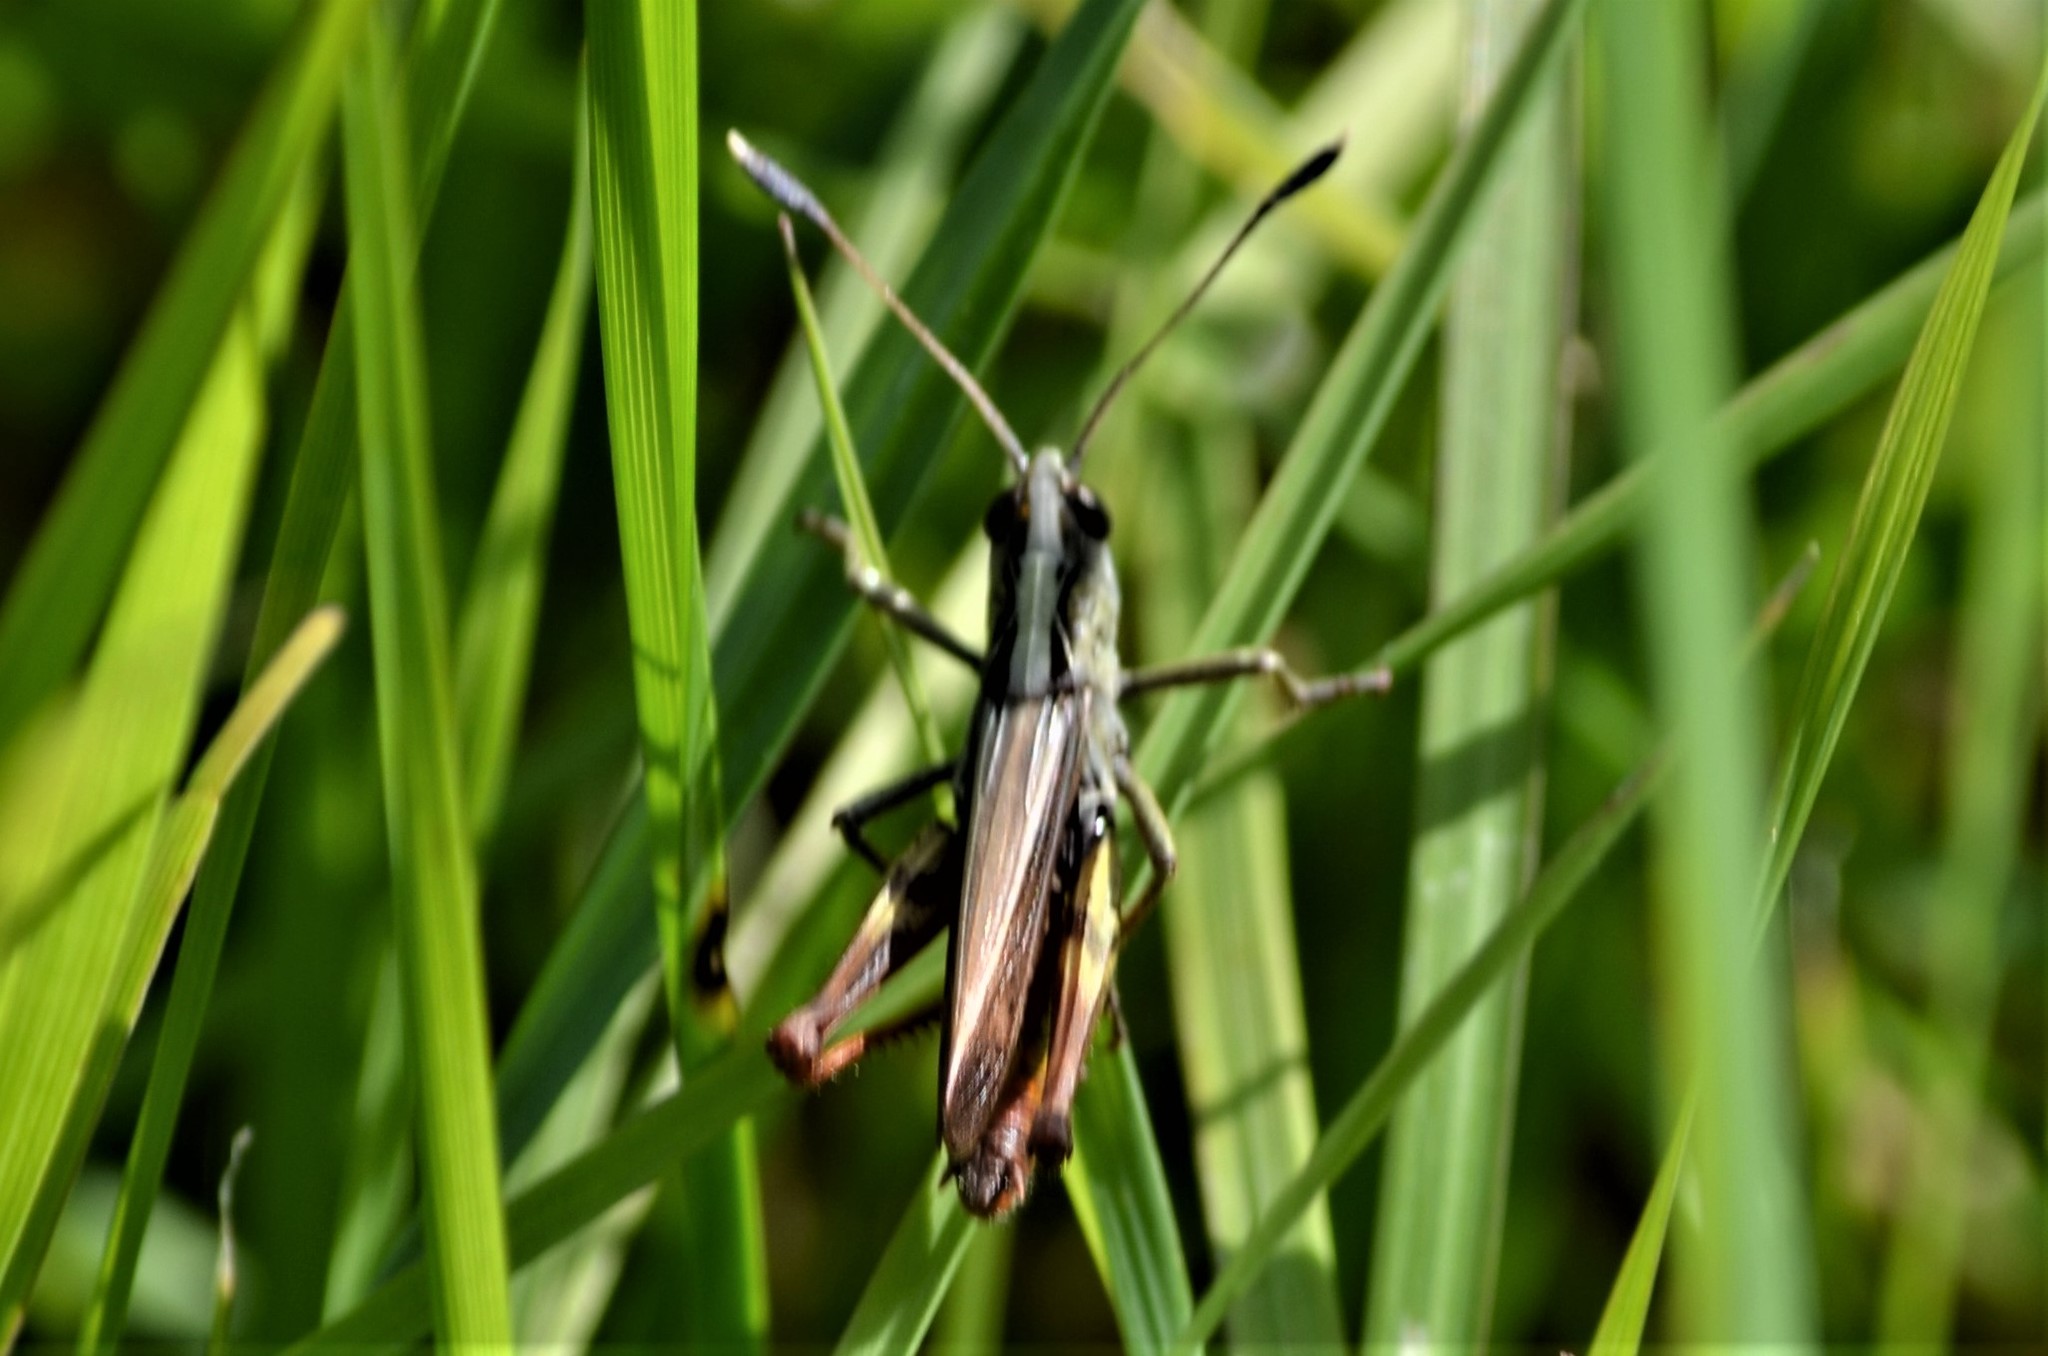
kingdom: Animalia
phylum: Arthropoda
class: Insecta
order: Orthoptera
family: Acrididae
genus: Gomphocerippus
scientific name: Gomphocerippus rufus
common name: Rufous grasshopper
